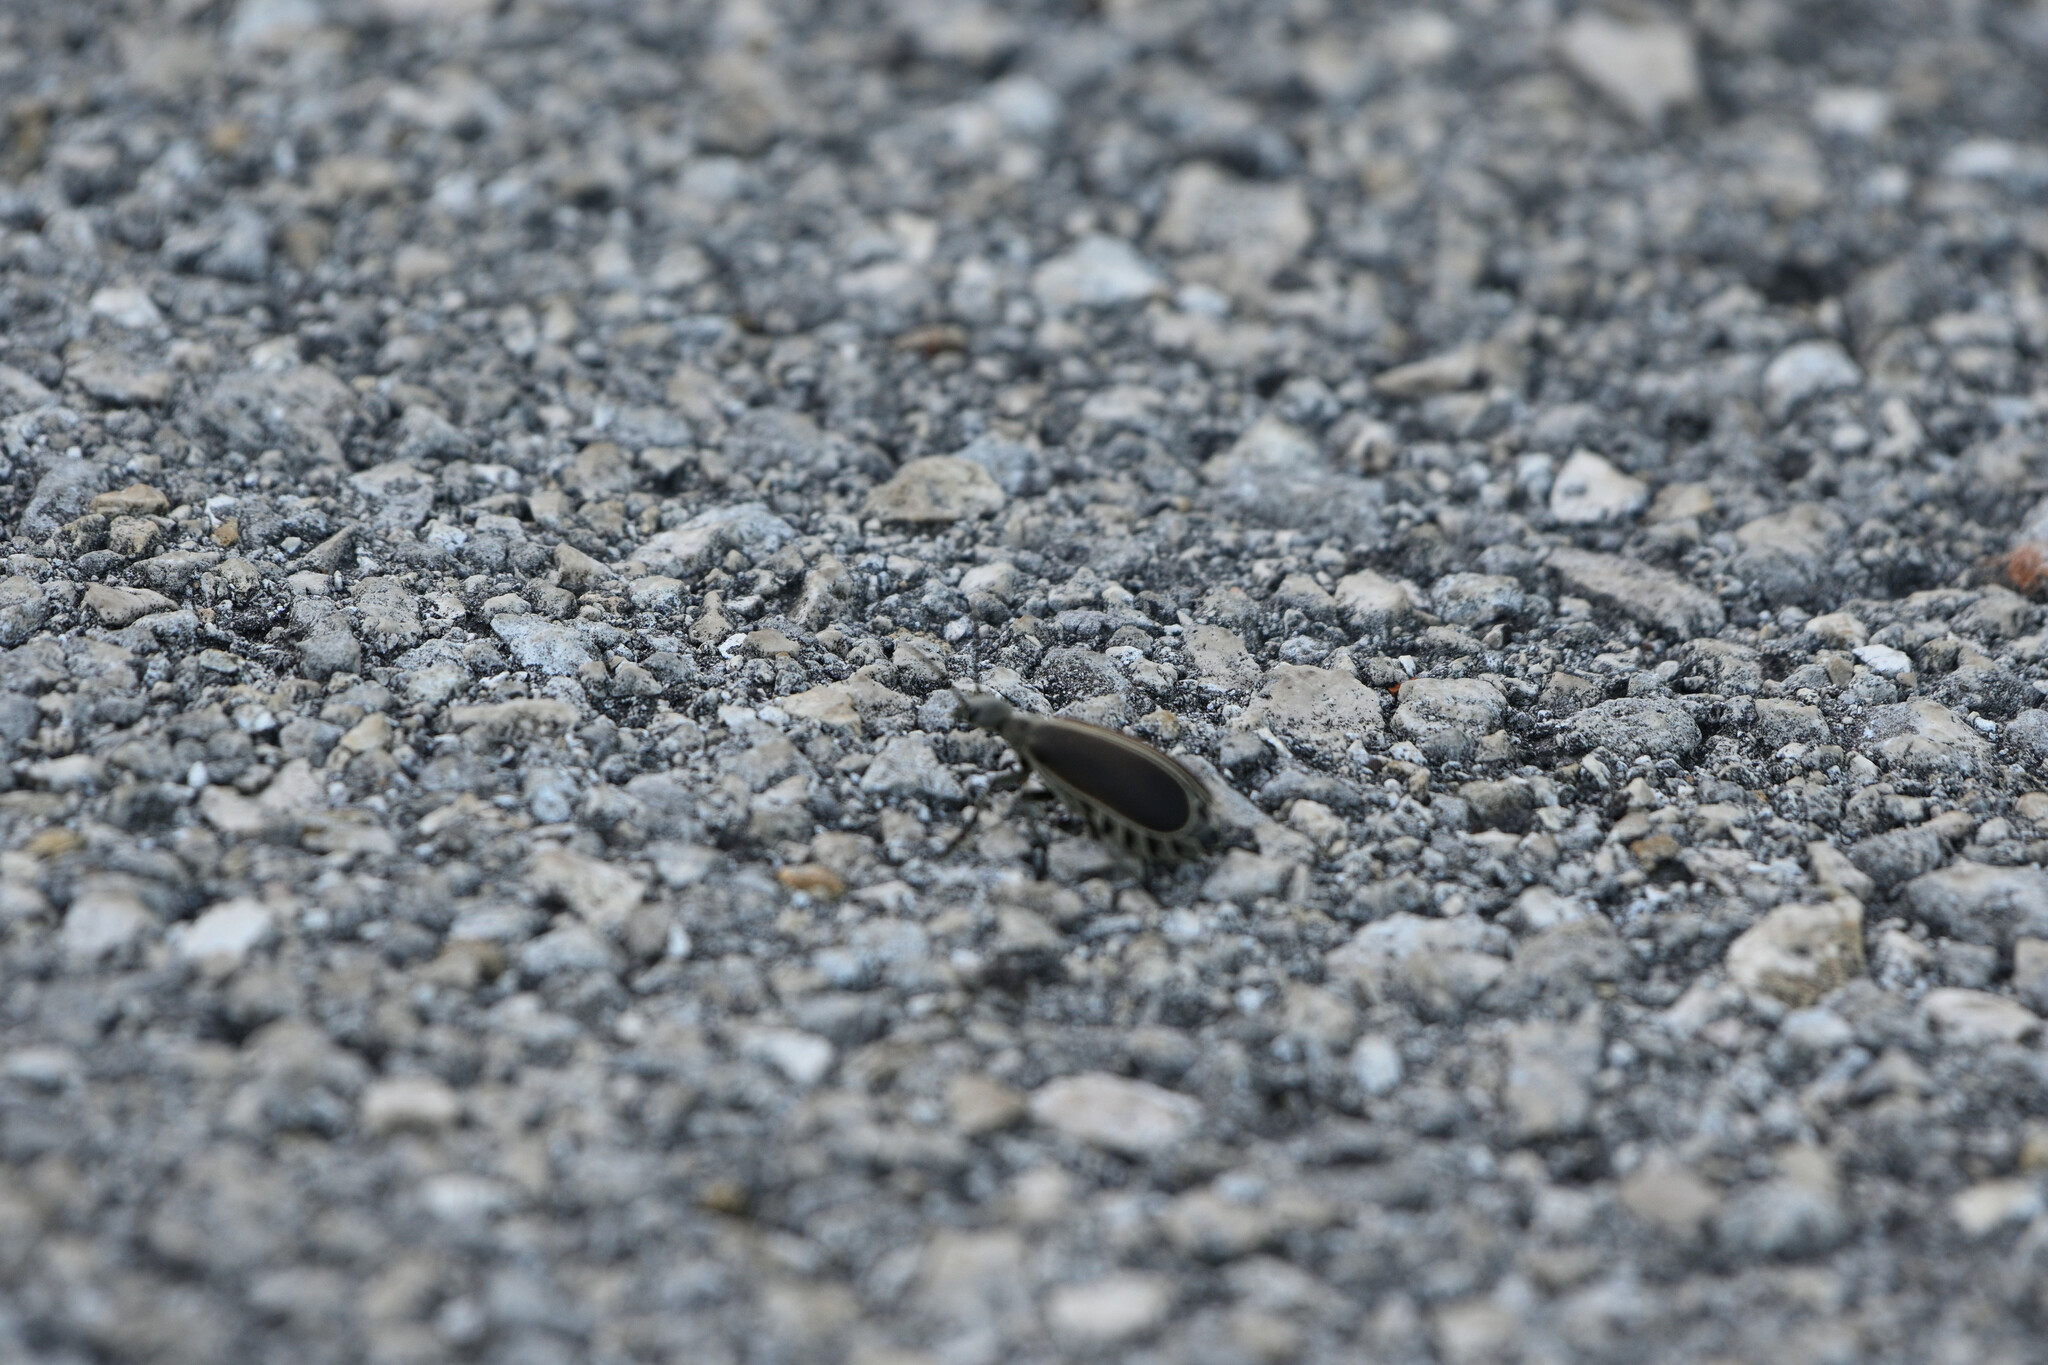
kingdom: Animalia
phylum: Arthropoda
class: Insecta
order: Coleoptera
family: Meloidae
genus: Epicauta
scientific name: Epicauta major
